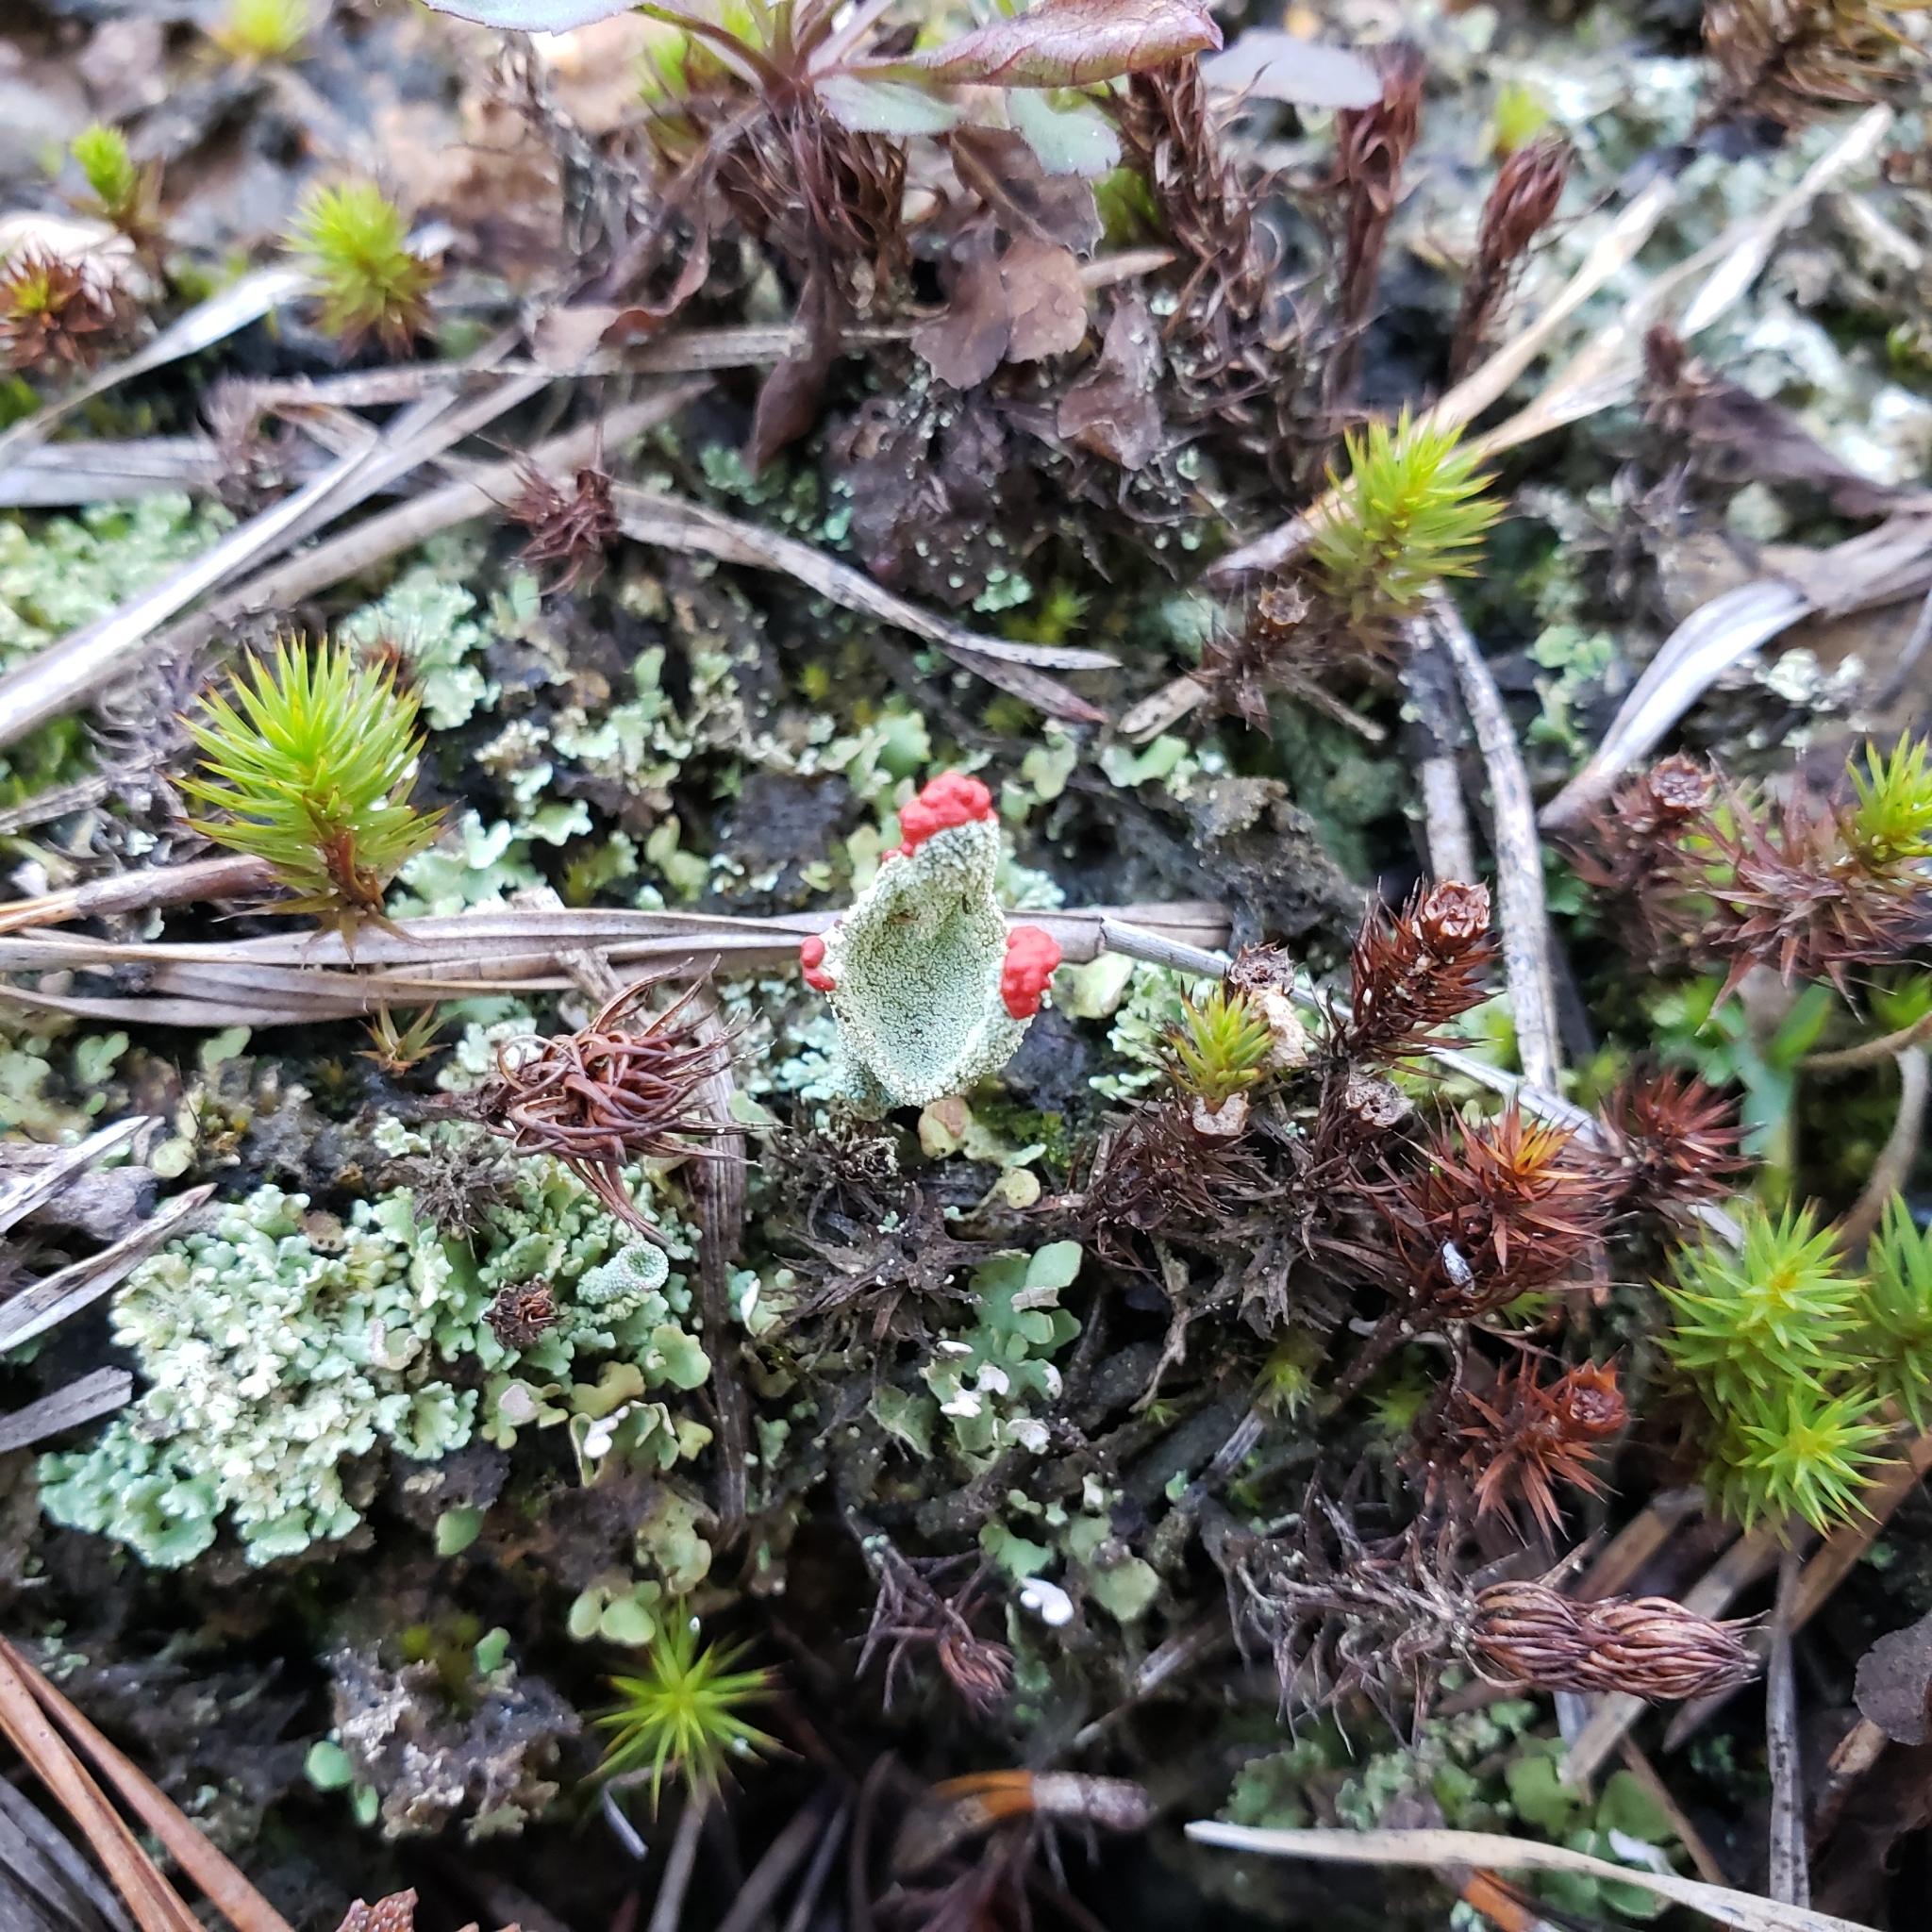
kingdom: Fungi
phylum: Ascomycota
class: Lecanoromycetes
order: Lecanorales
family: Cladoniaceae
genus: Cladonia
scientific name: Cladonia pleurota
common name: Red-fruited pixie cup
